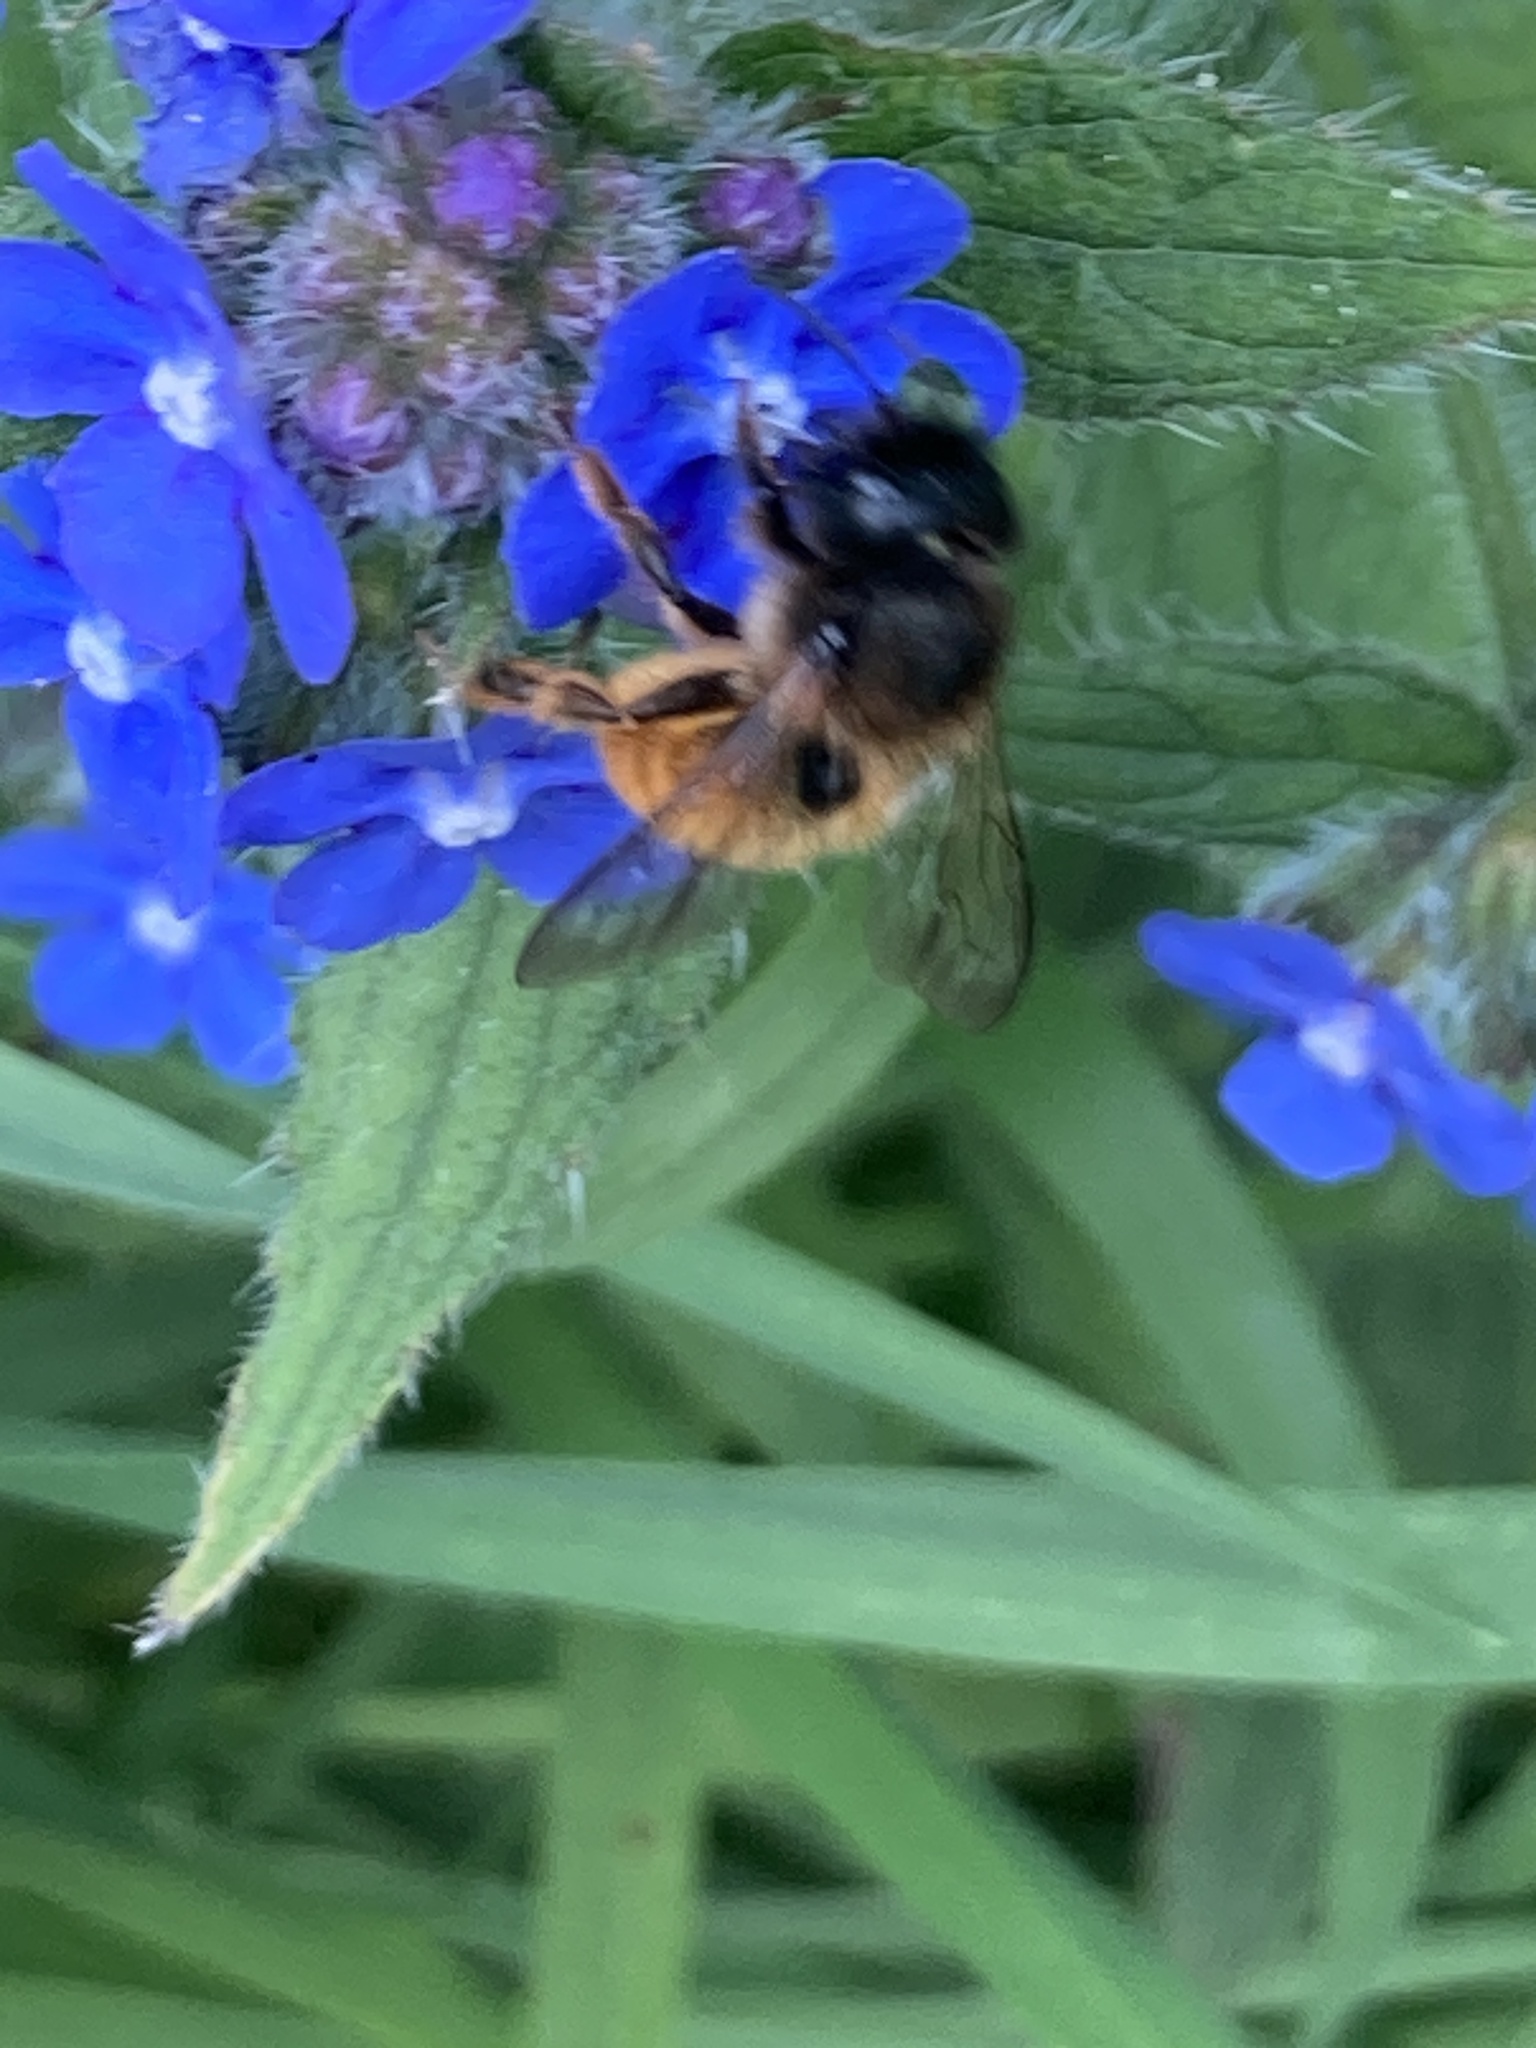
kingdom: Animalia
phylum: Arthropoda
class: Insecta
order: Hymenoptera
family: Megachilidae
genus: Osmia
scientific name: Osmia bicornis
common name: Red mason bee
